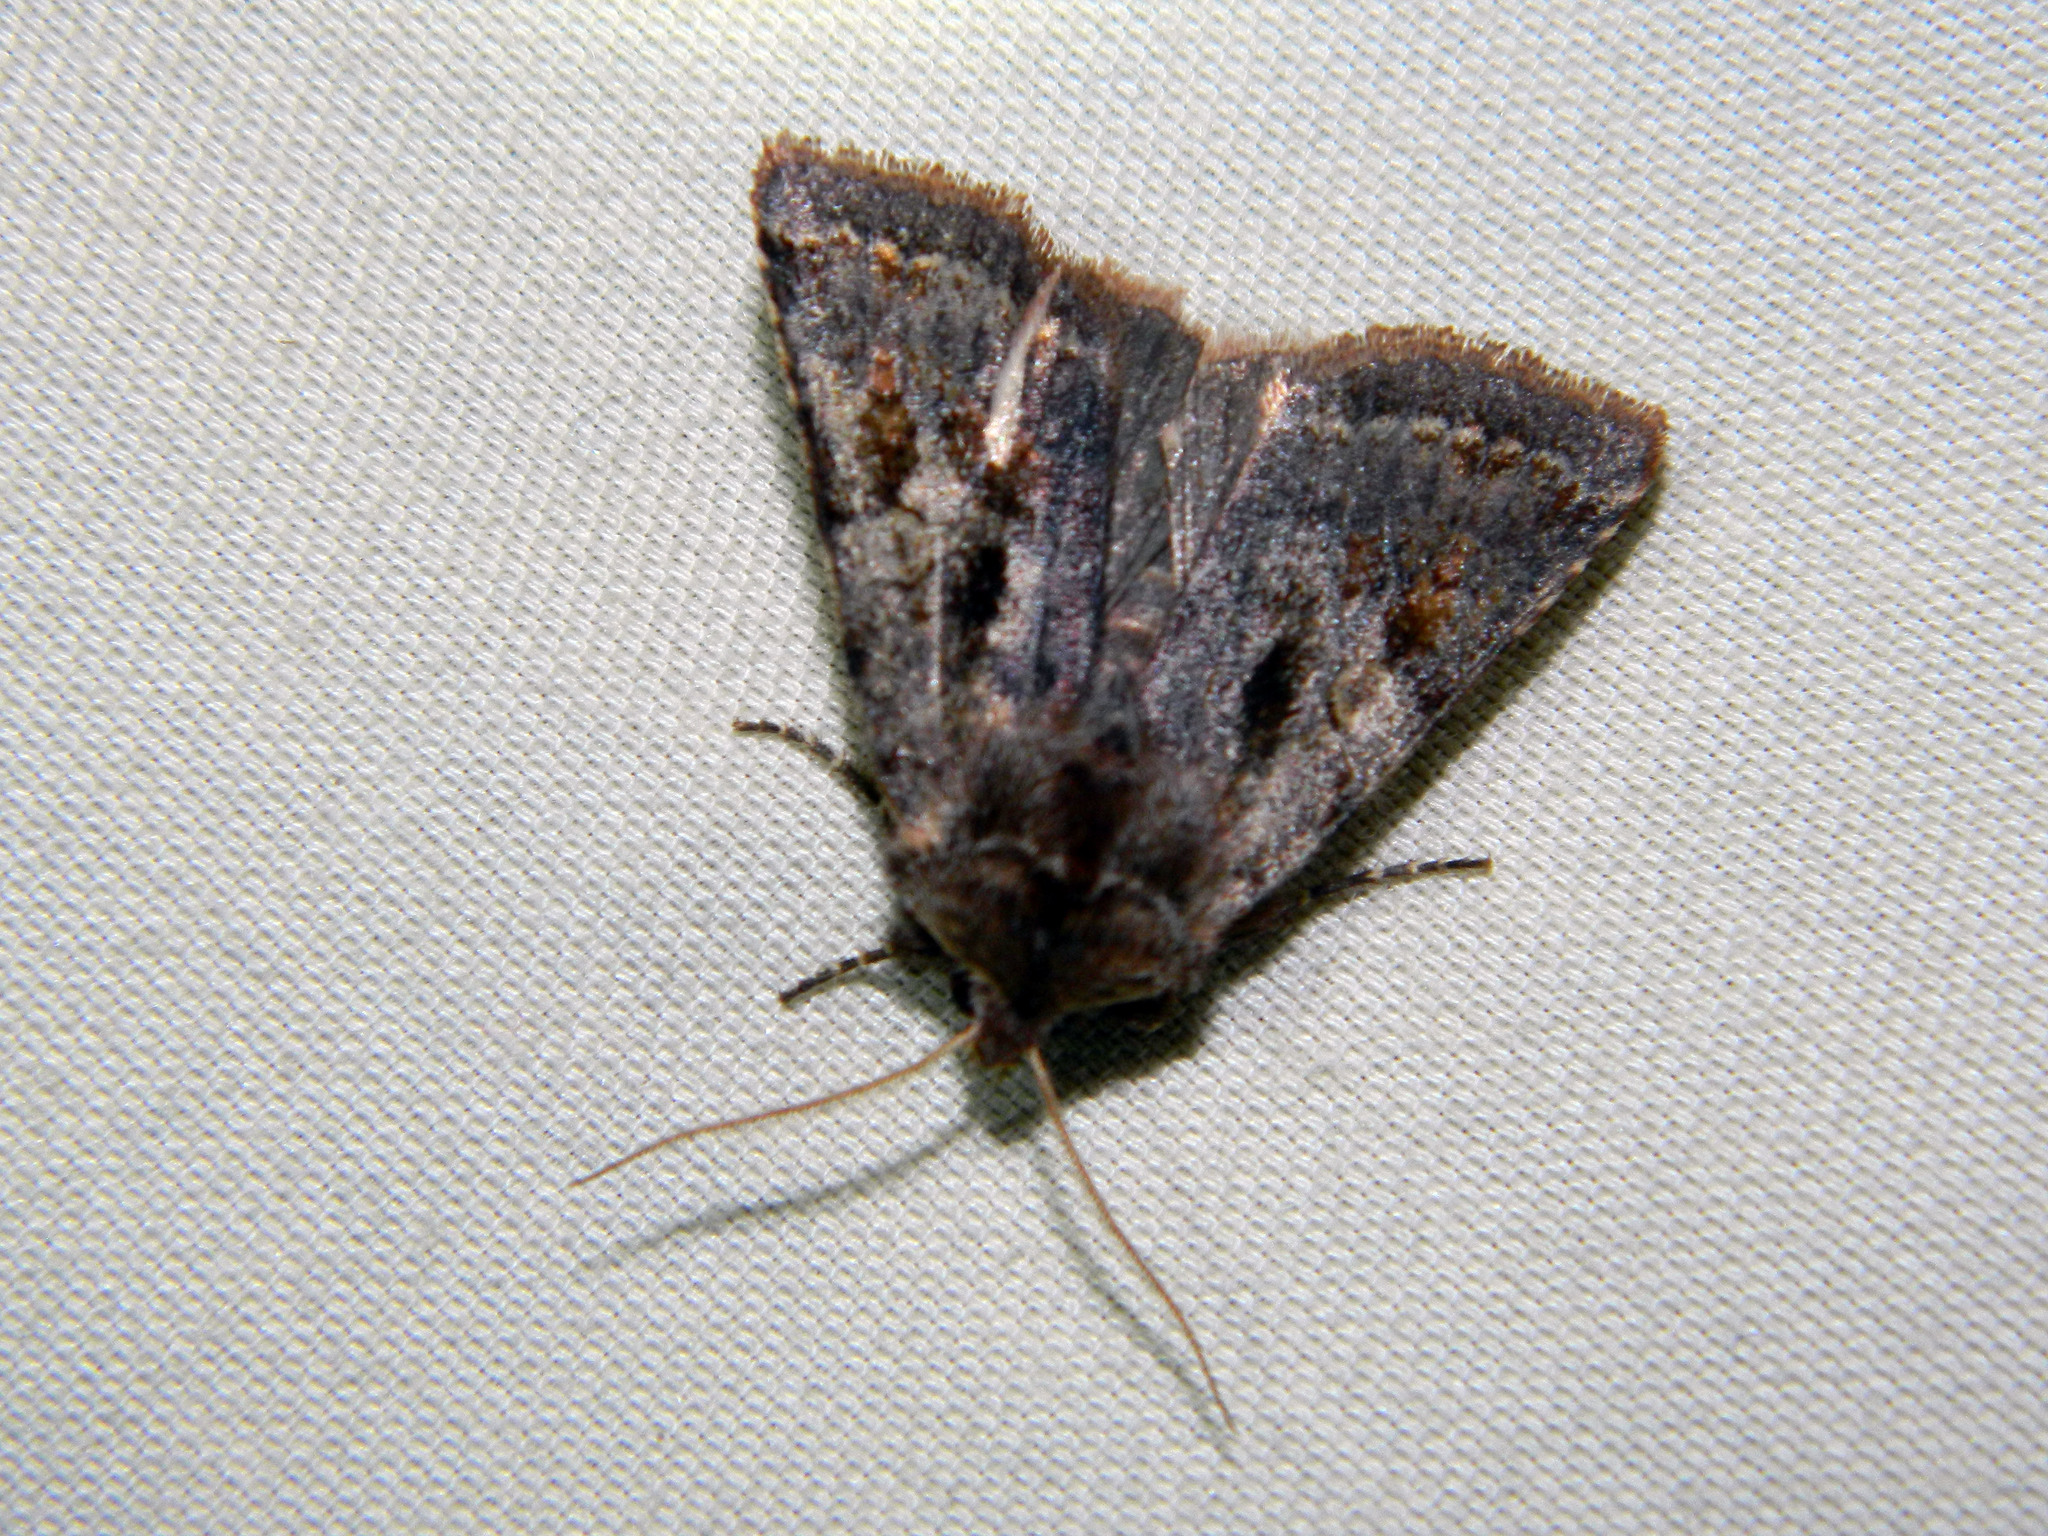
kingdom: Animalia
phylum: Arthropoda
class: Insecta
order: Lepidoptera
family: Noctuidae
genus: Cerastis
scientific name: Cerastis salicarum
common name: Willow dart
